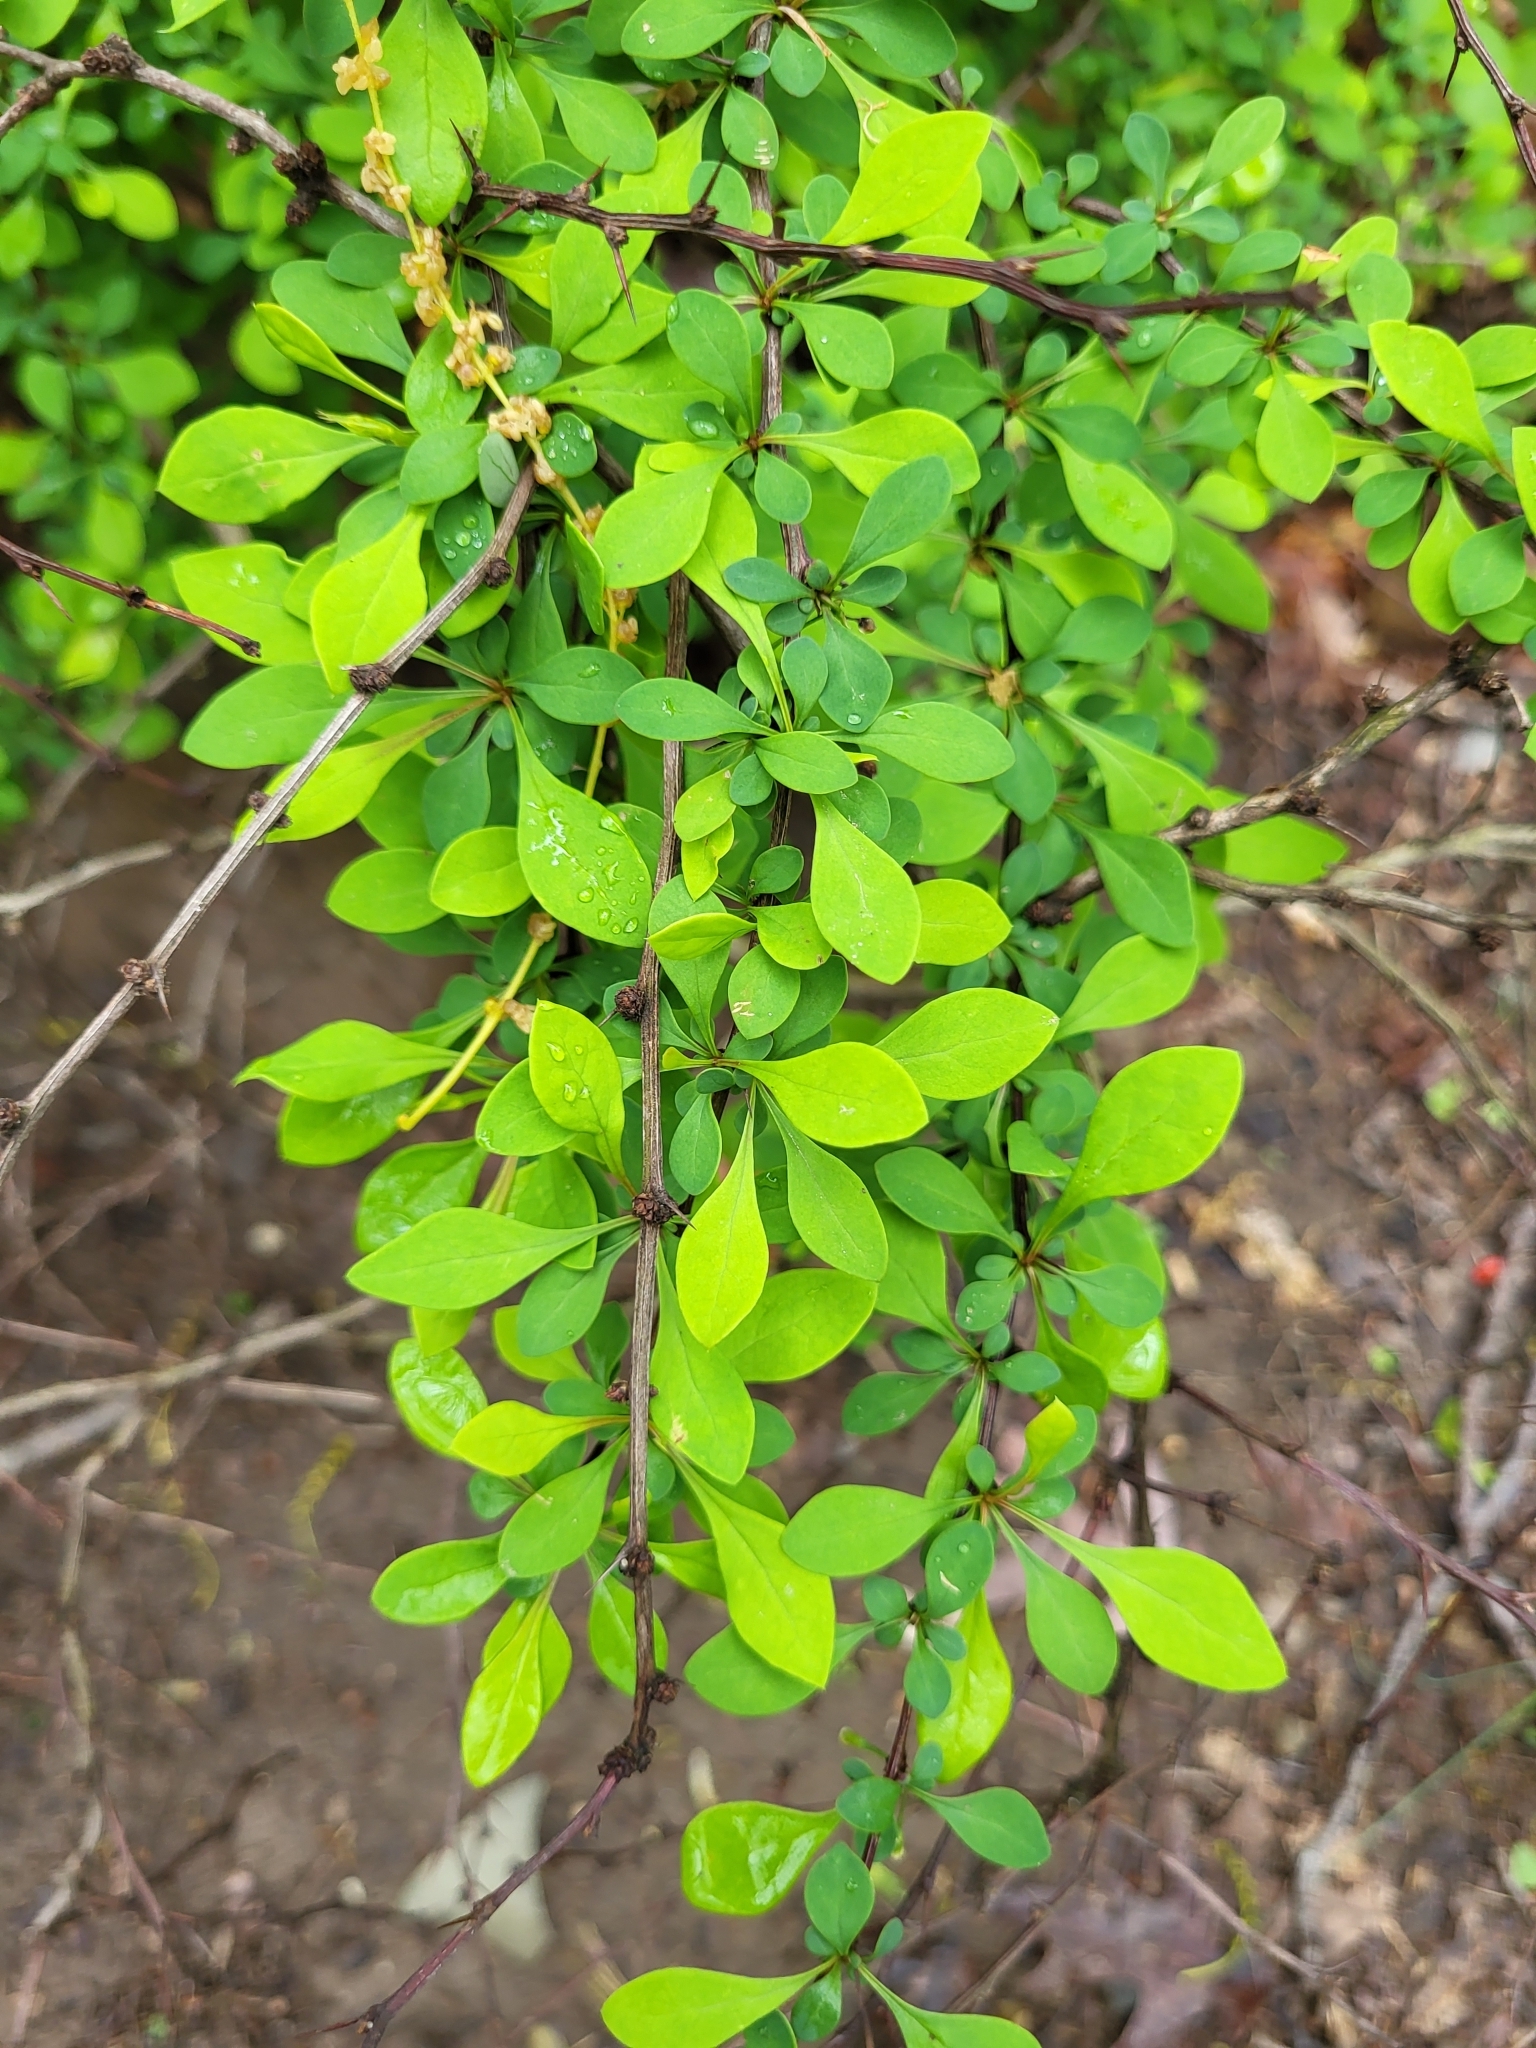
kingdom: Plantae
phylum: Tracheophyta
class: Magnoliopsida
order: Ranunculales
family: Berberidaceae
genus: Berberis
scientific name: Berberis thunbergii
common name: Japanese barberry
